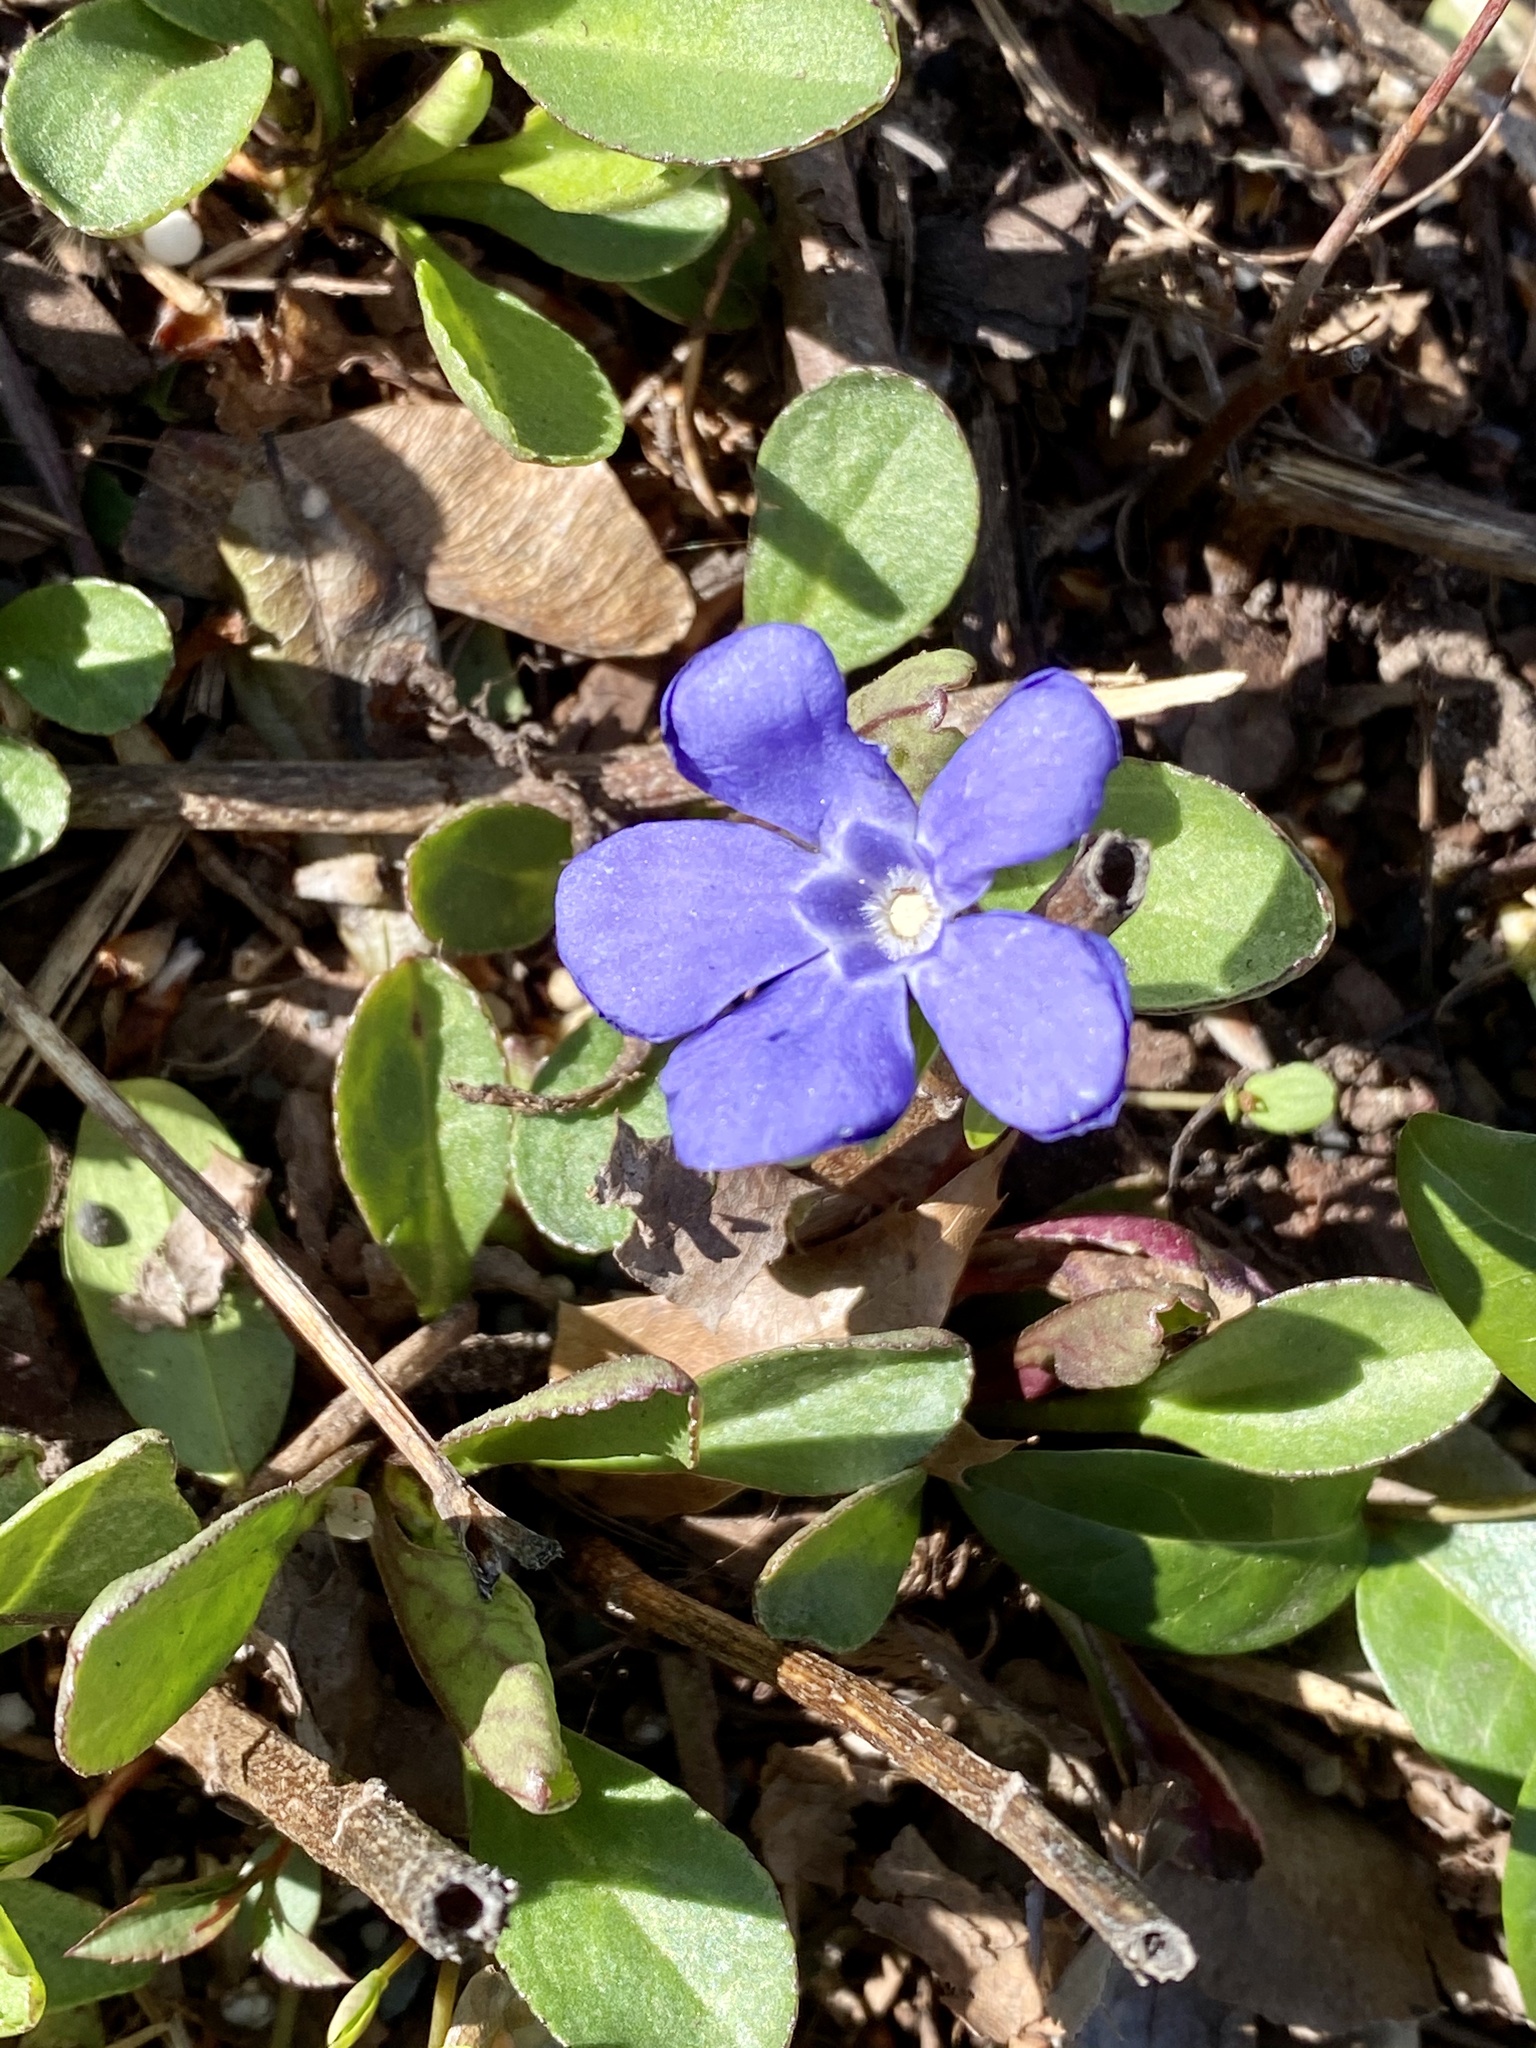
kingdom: Plantae
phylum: Tracheophyta
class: Magnoliopsida
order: Gentianales
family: Apocynaceae
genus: Vinca
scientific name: Vinca minor
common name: Lesser periwinkle
